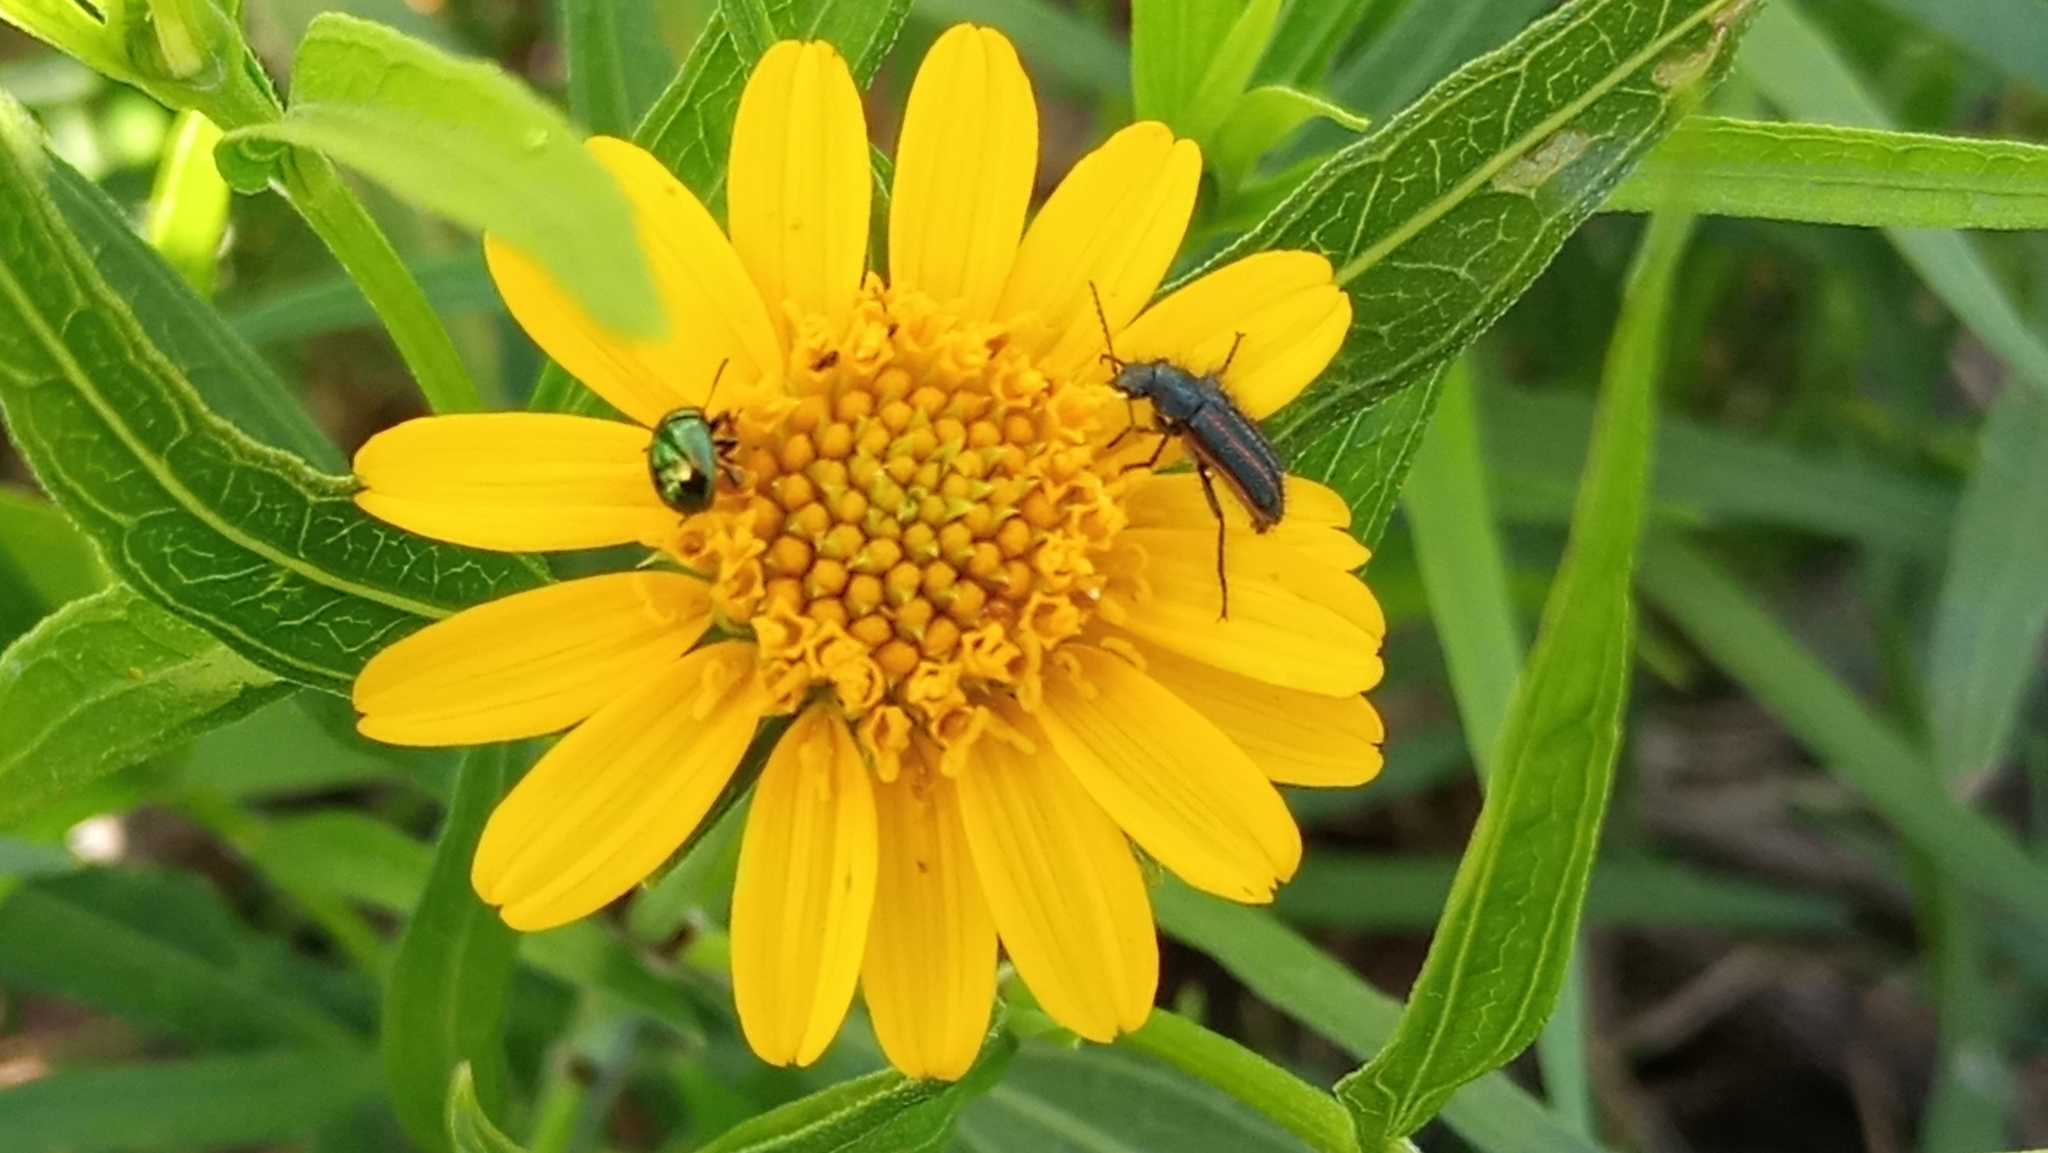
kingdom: Animalia
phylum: Arthropoda
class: Insecta
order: Coleoptera
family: Melyridae
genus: Astylus
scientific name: Astylus
